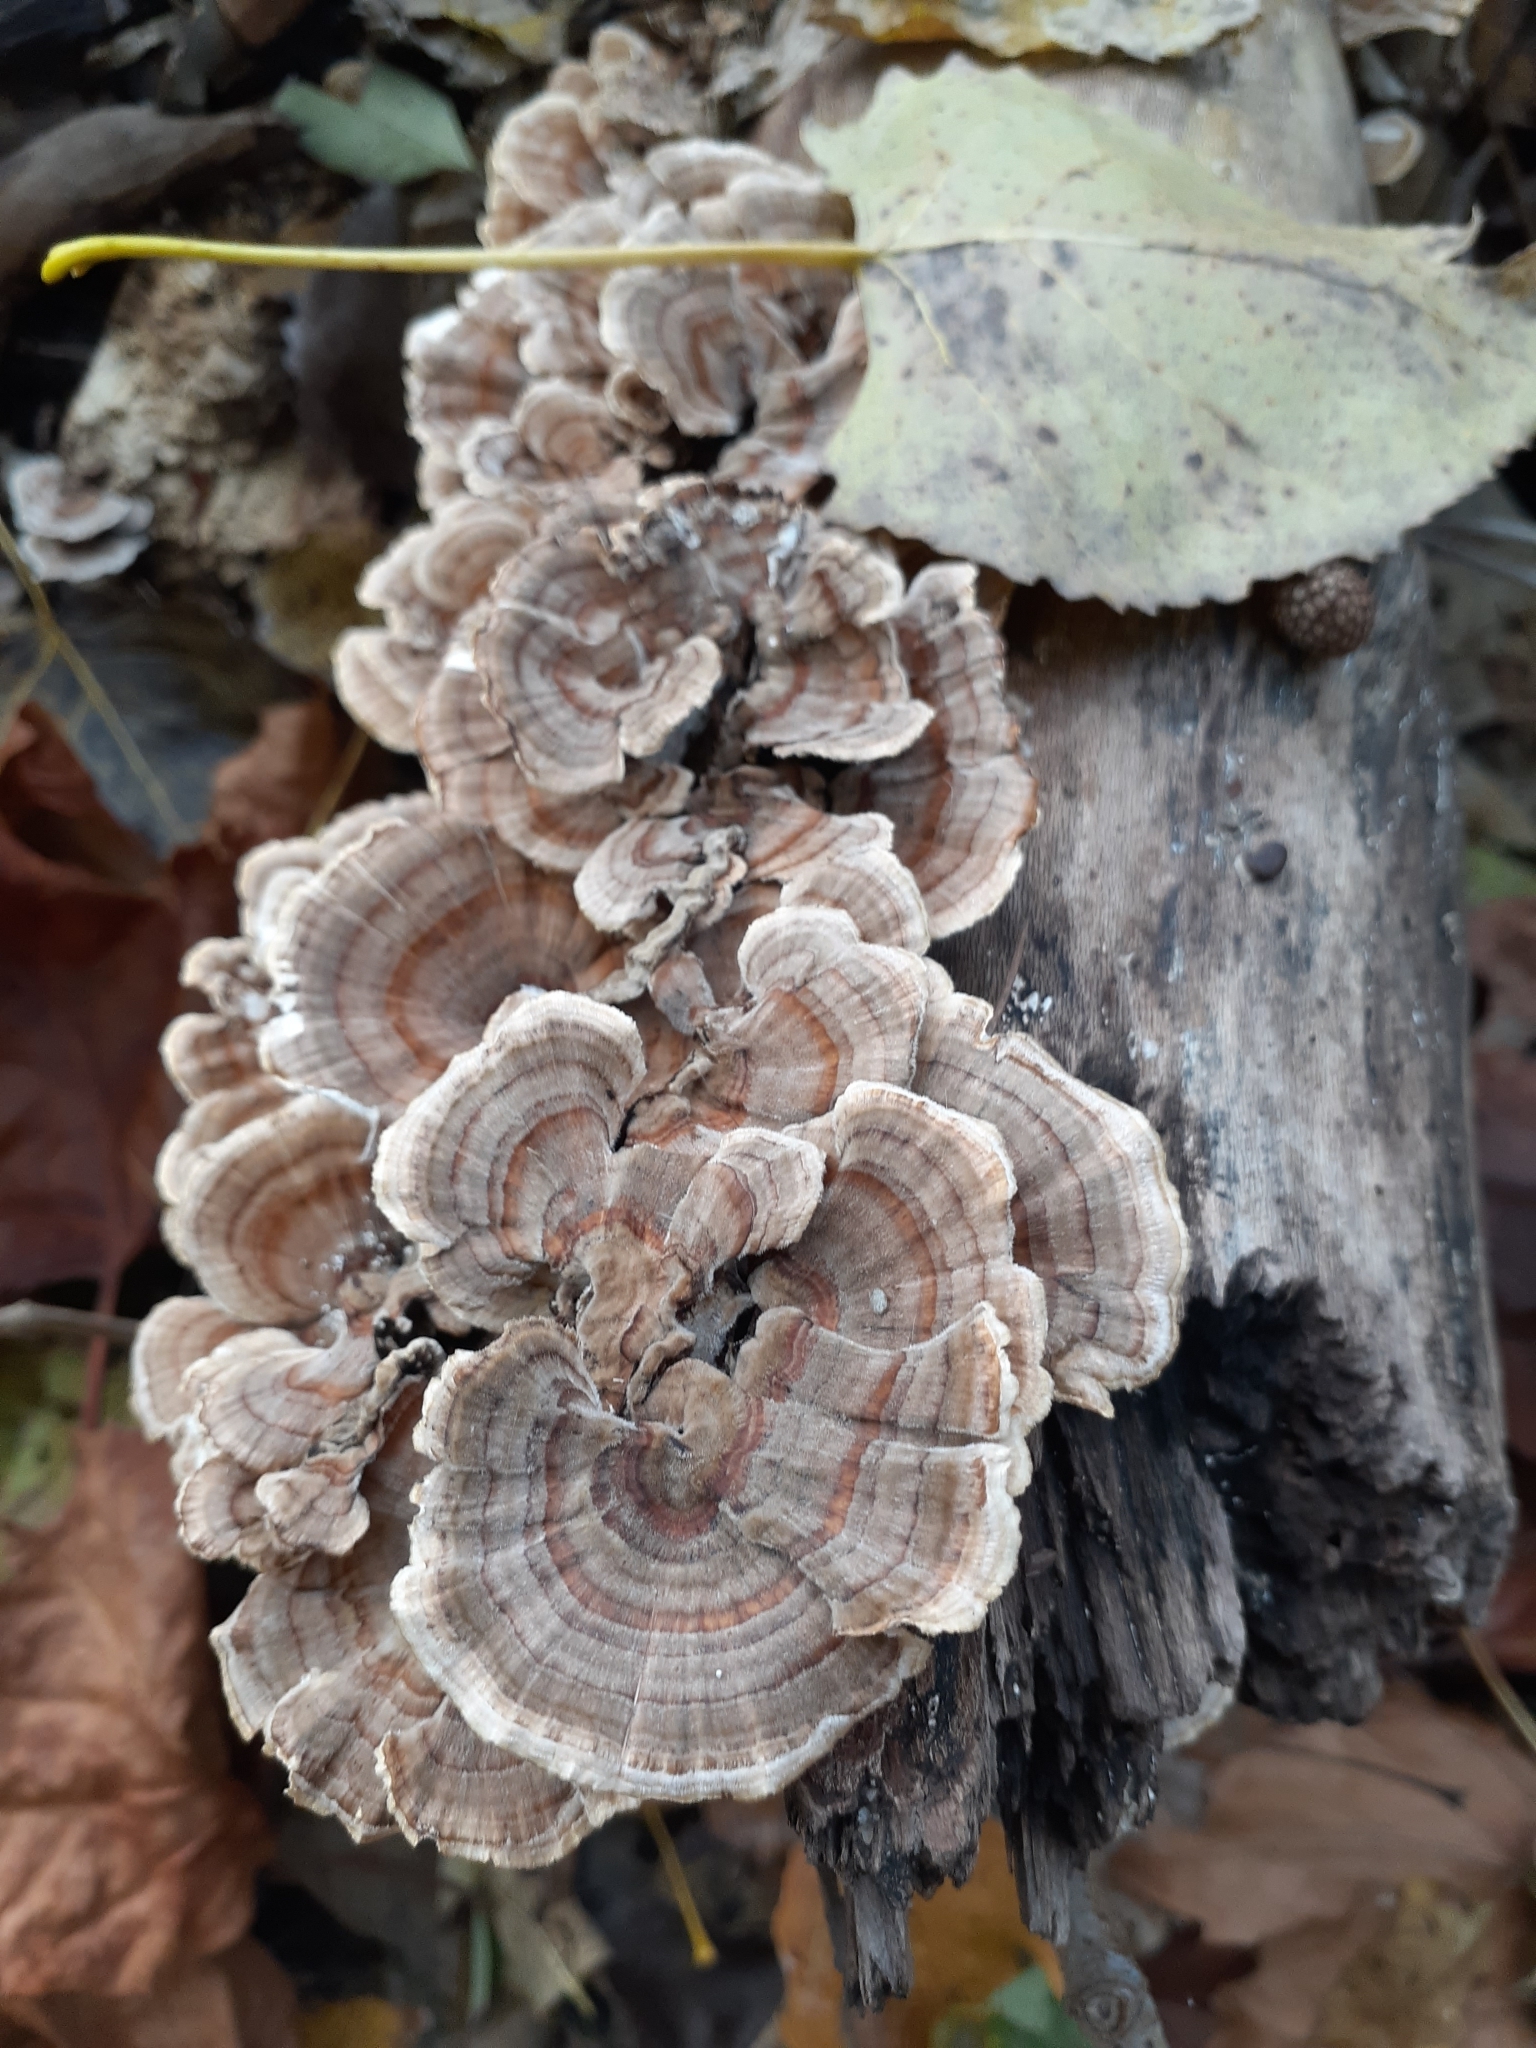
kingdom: Fungi
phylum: Basidiomycota
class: Agaricomycetes
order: Polyporales
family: Polyporaceae
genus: Trametes
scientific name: Trametes versicolor
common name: Turkeytail
